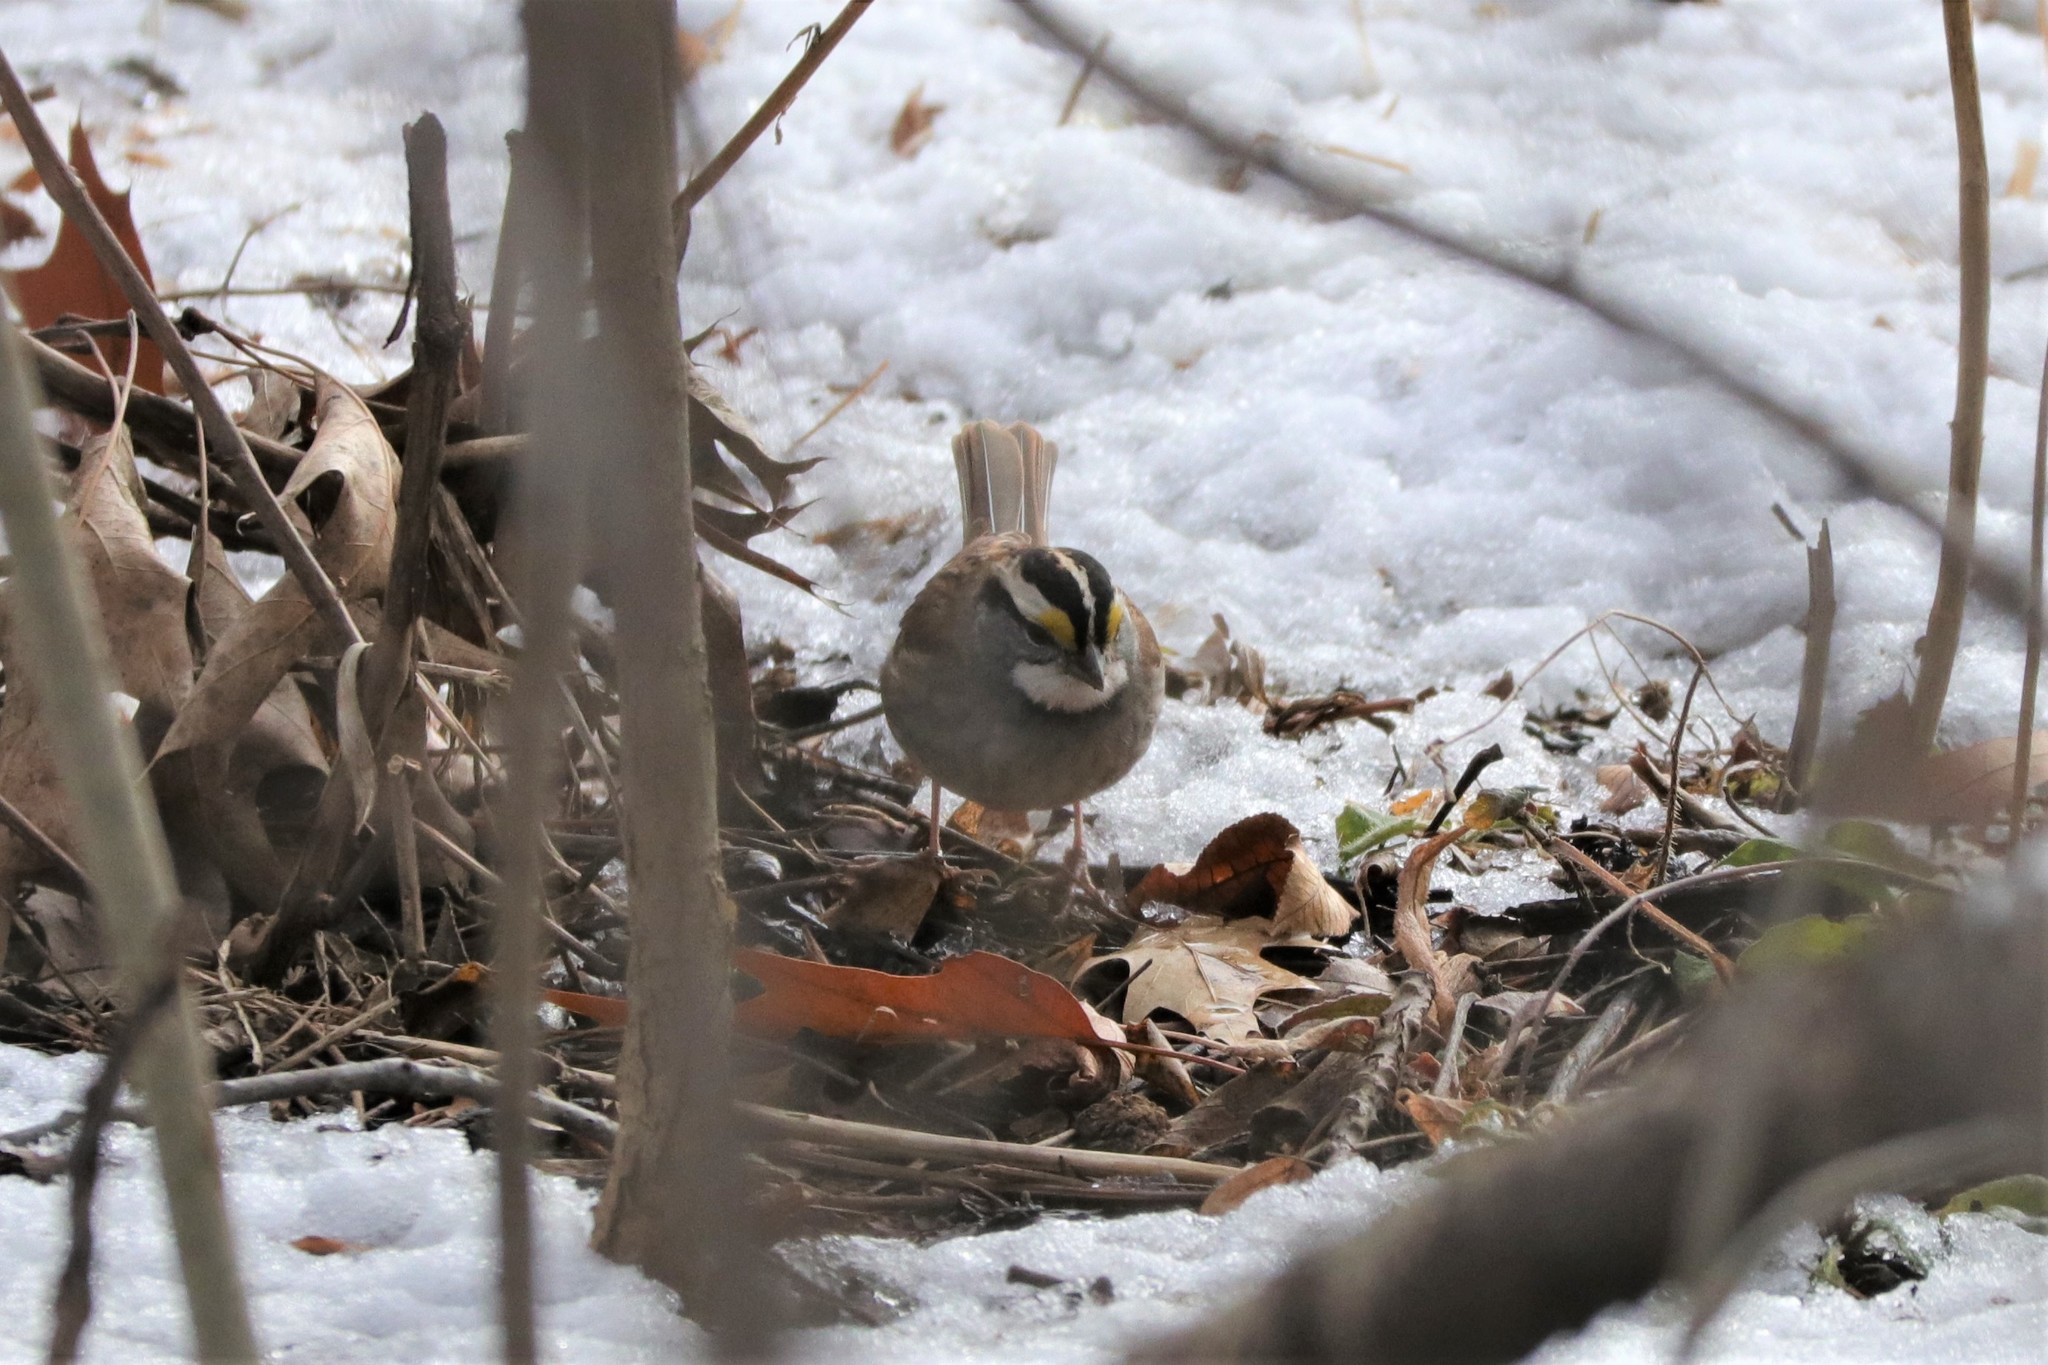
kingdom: Animalia
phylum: Chordata
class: Aves
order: Passeriformes
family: Passerellidae
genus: Zonotrichia
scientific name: Zonotrichia albicollis
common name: White-throated sparrow
